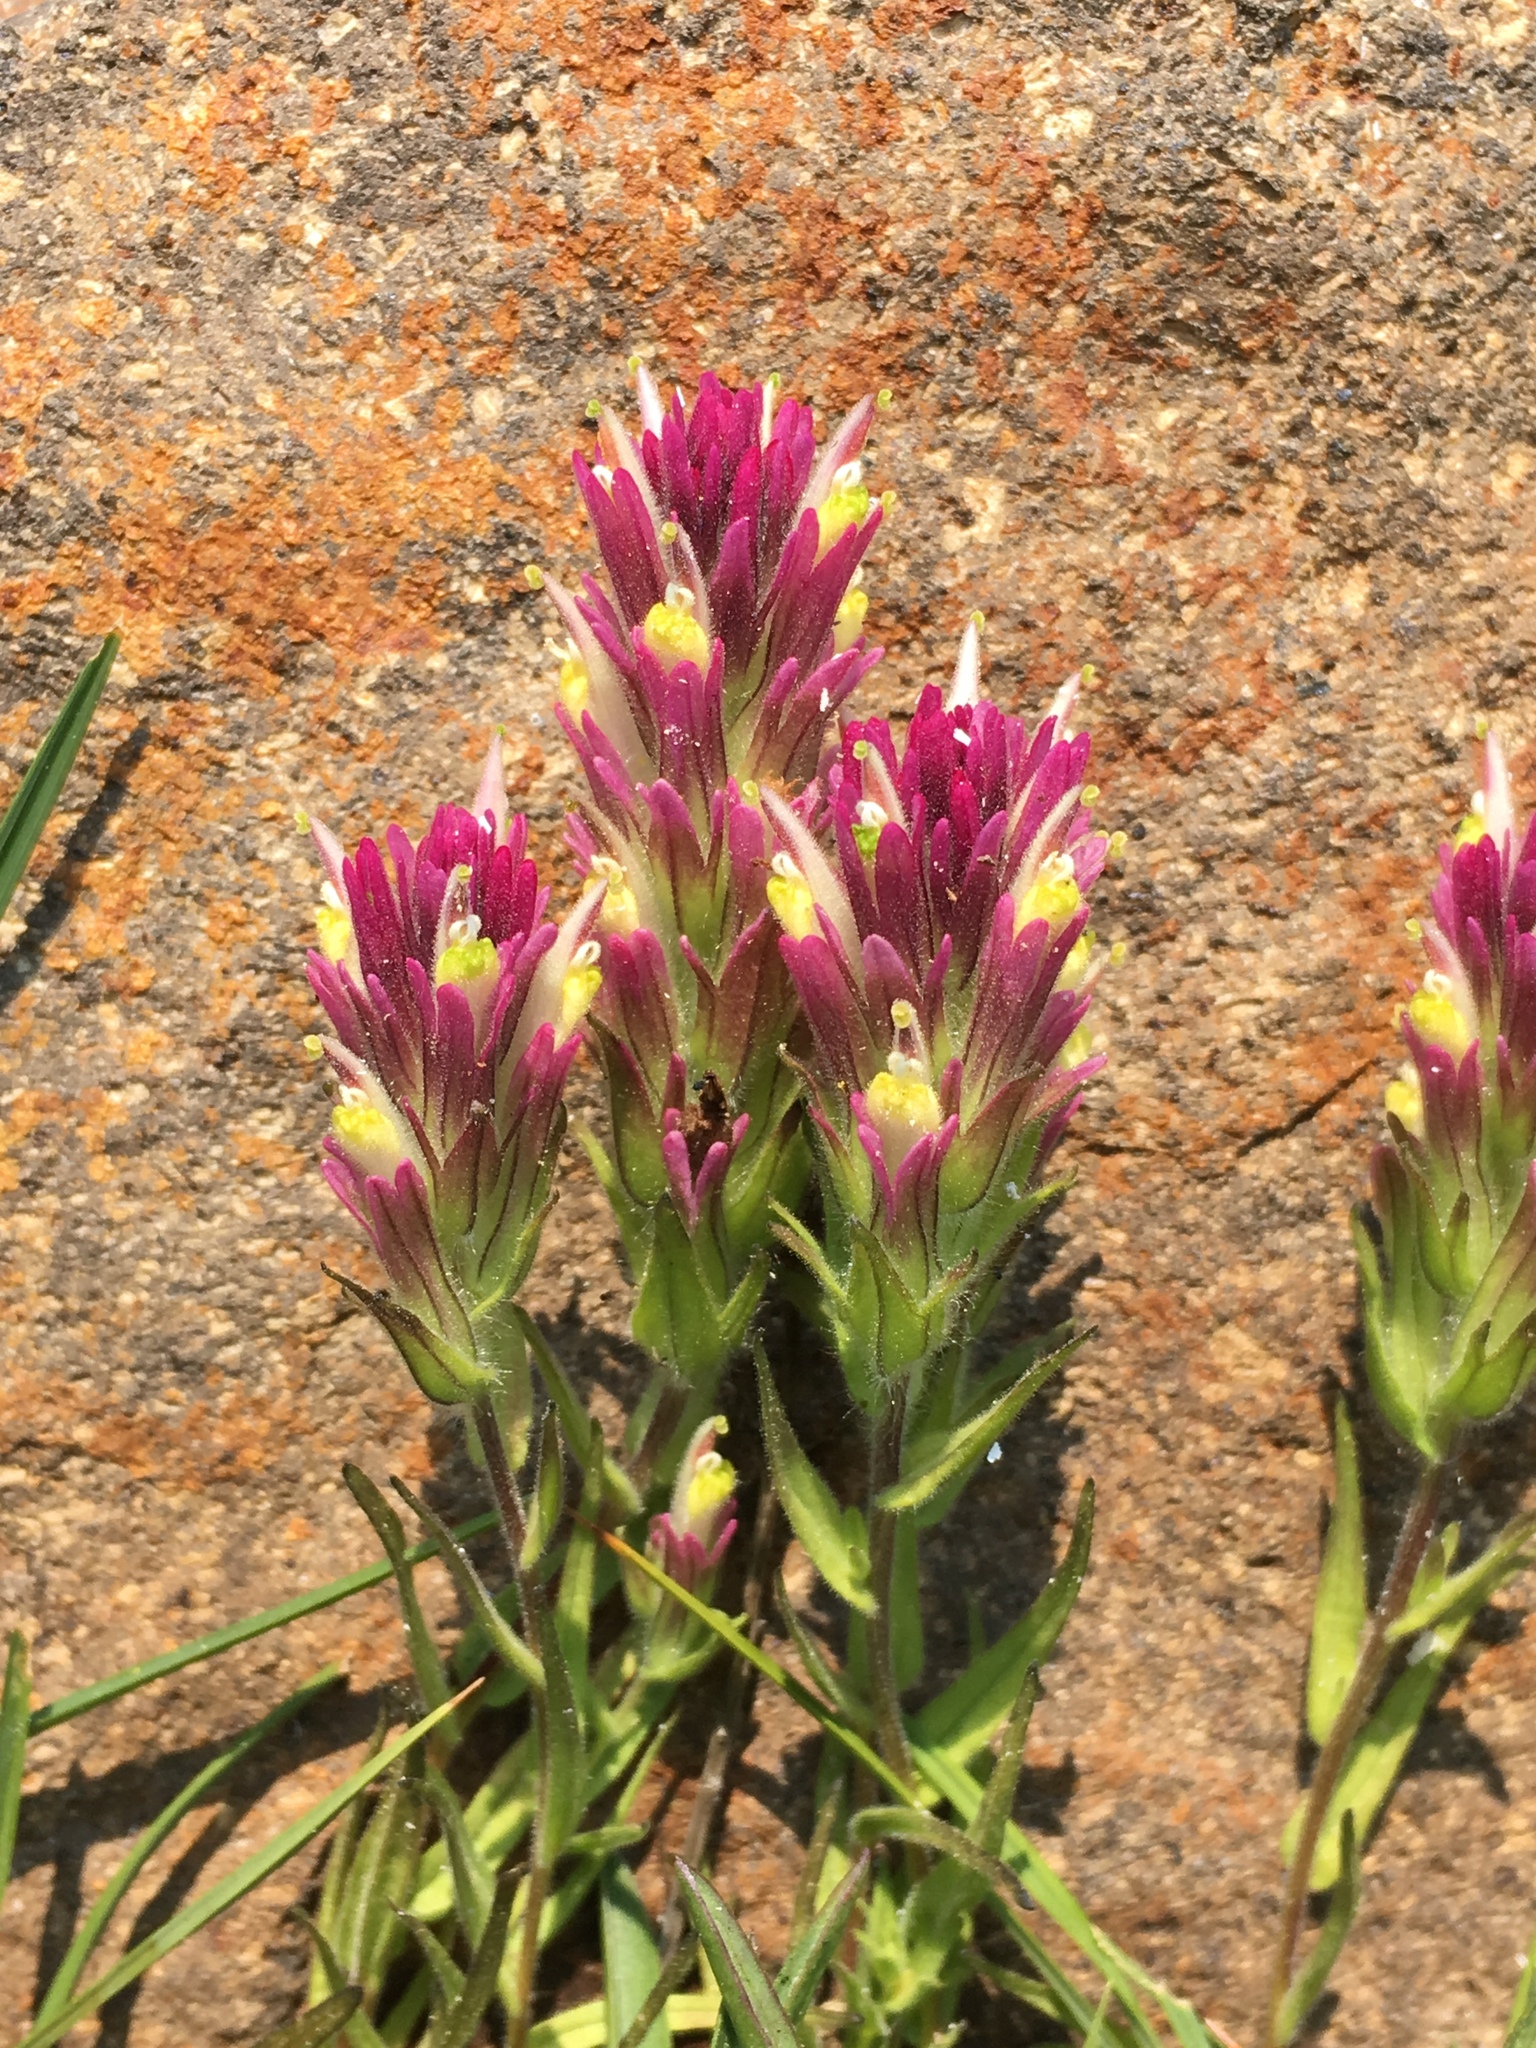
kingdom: Plantae
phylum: Tracheophyta
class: Magnoliopsida
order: Lamiales
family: Orobanchaceae
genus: Castilleja
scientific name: Castilleja lassenensis
